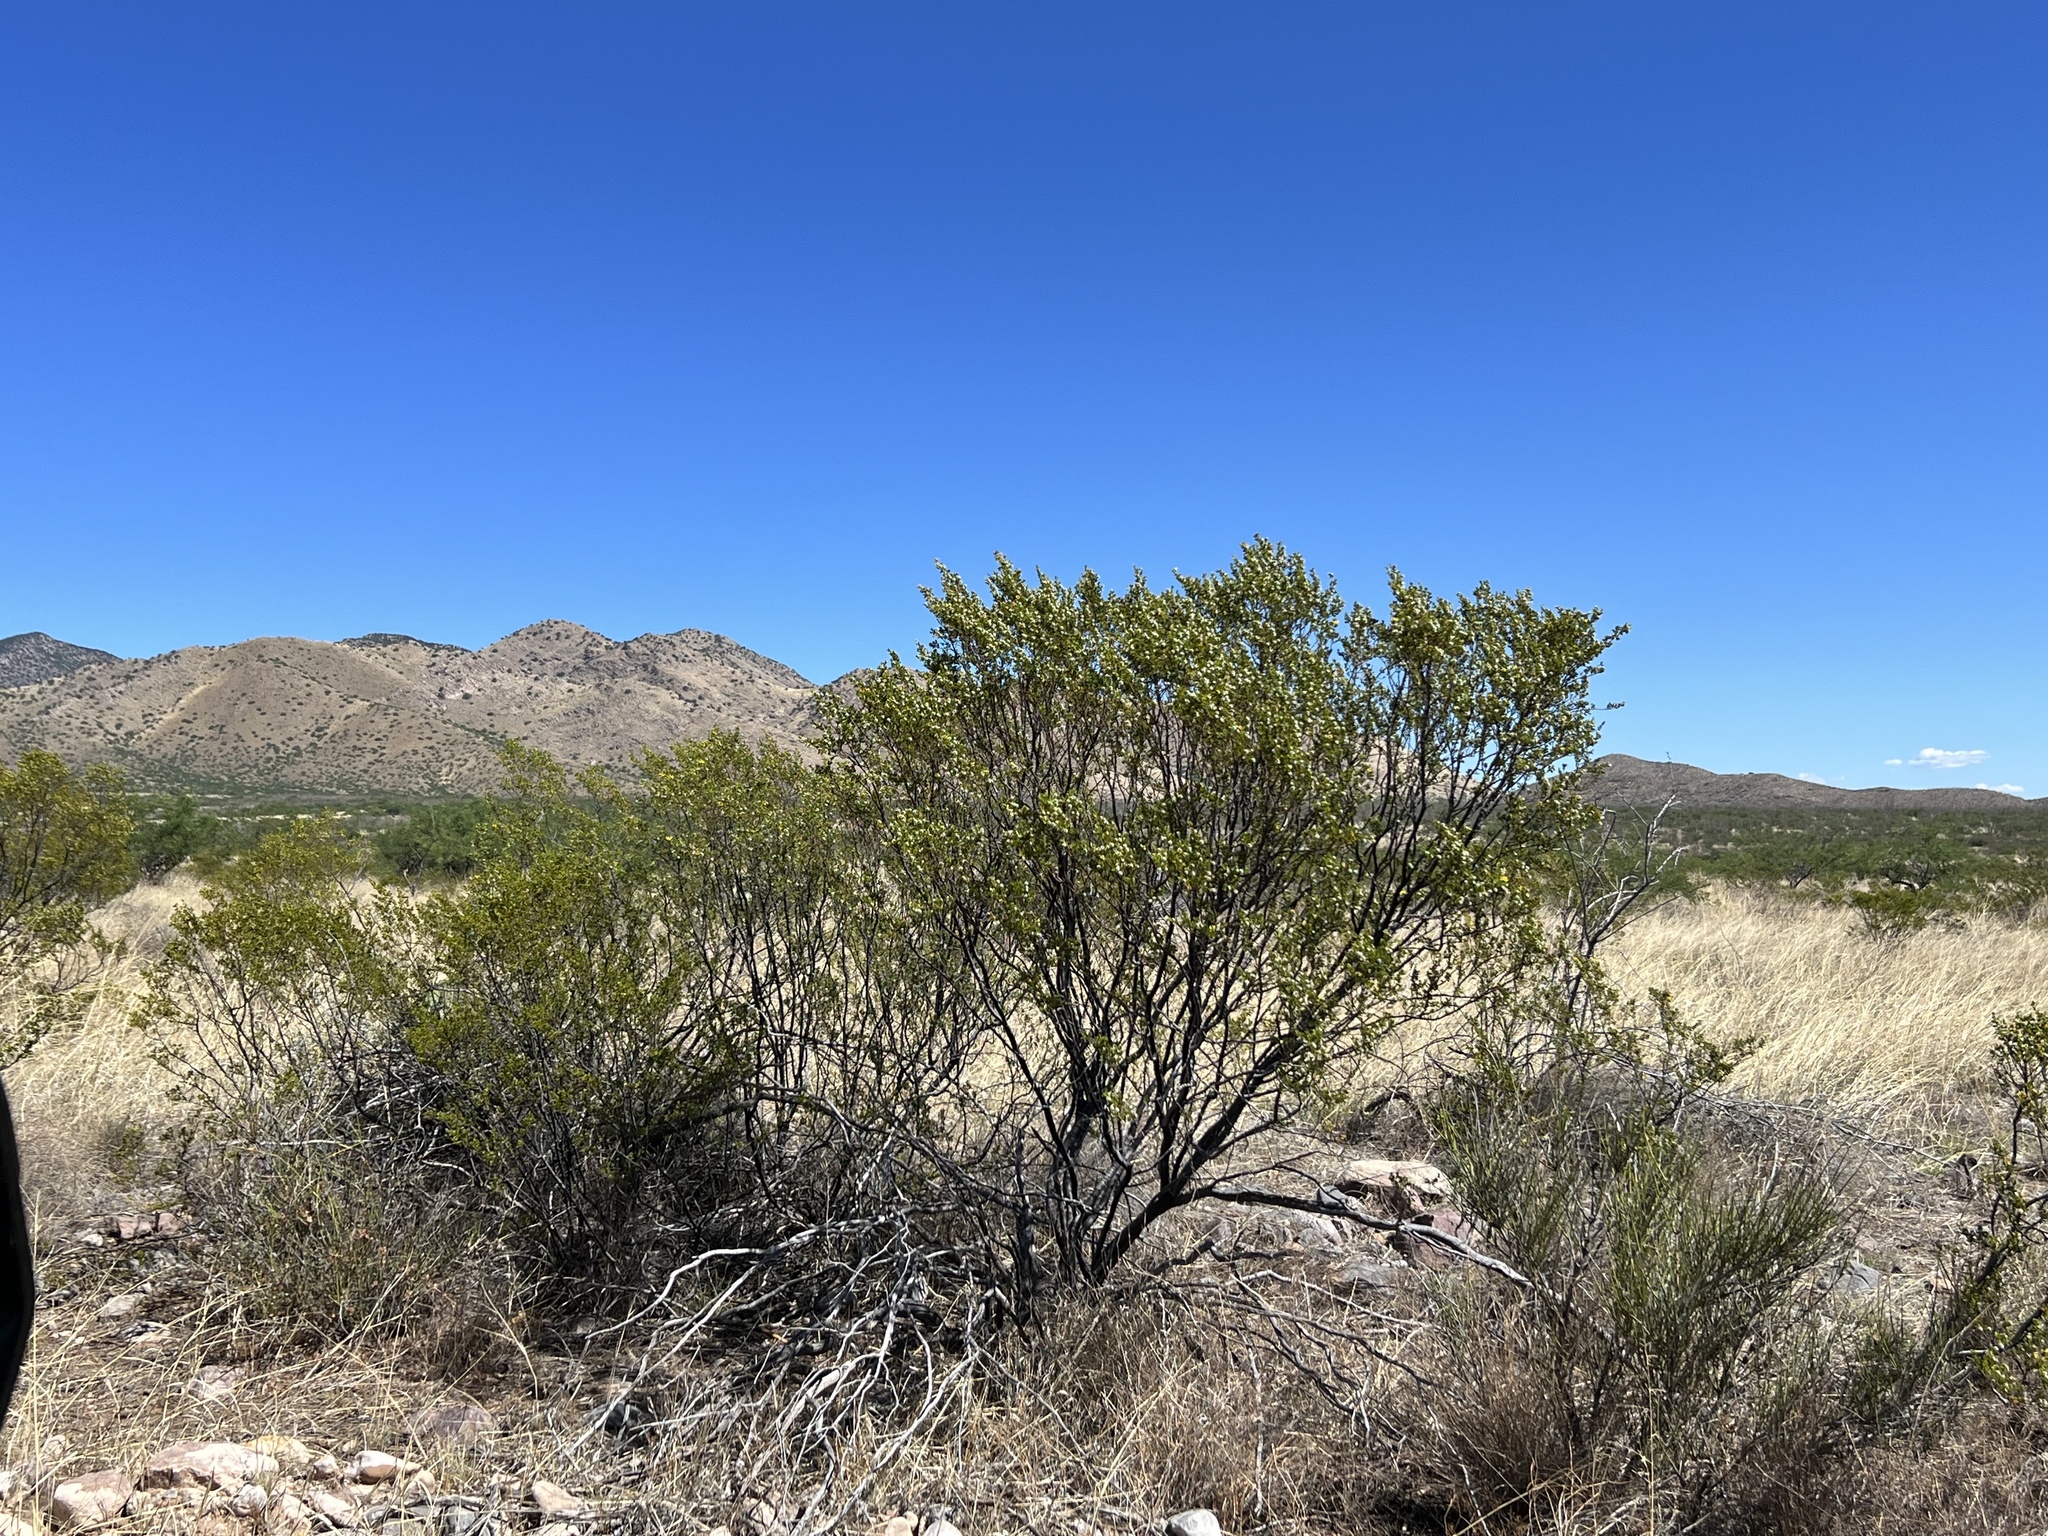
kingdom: Plantae
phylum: Tracheophyta
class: Magnoliopsida
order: Zygophyllales
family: Zygophyllaceae
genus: Larrea
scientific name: Larrea tridentata
